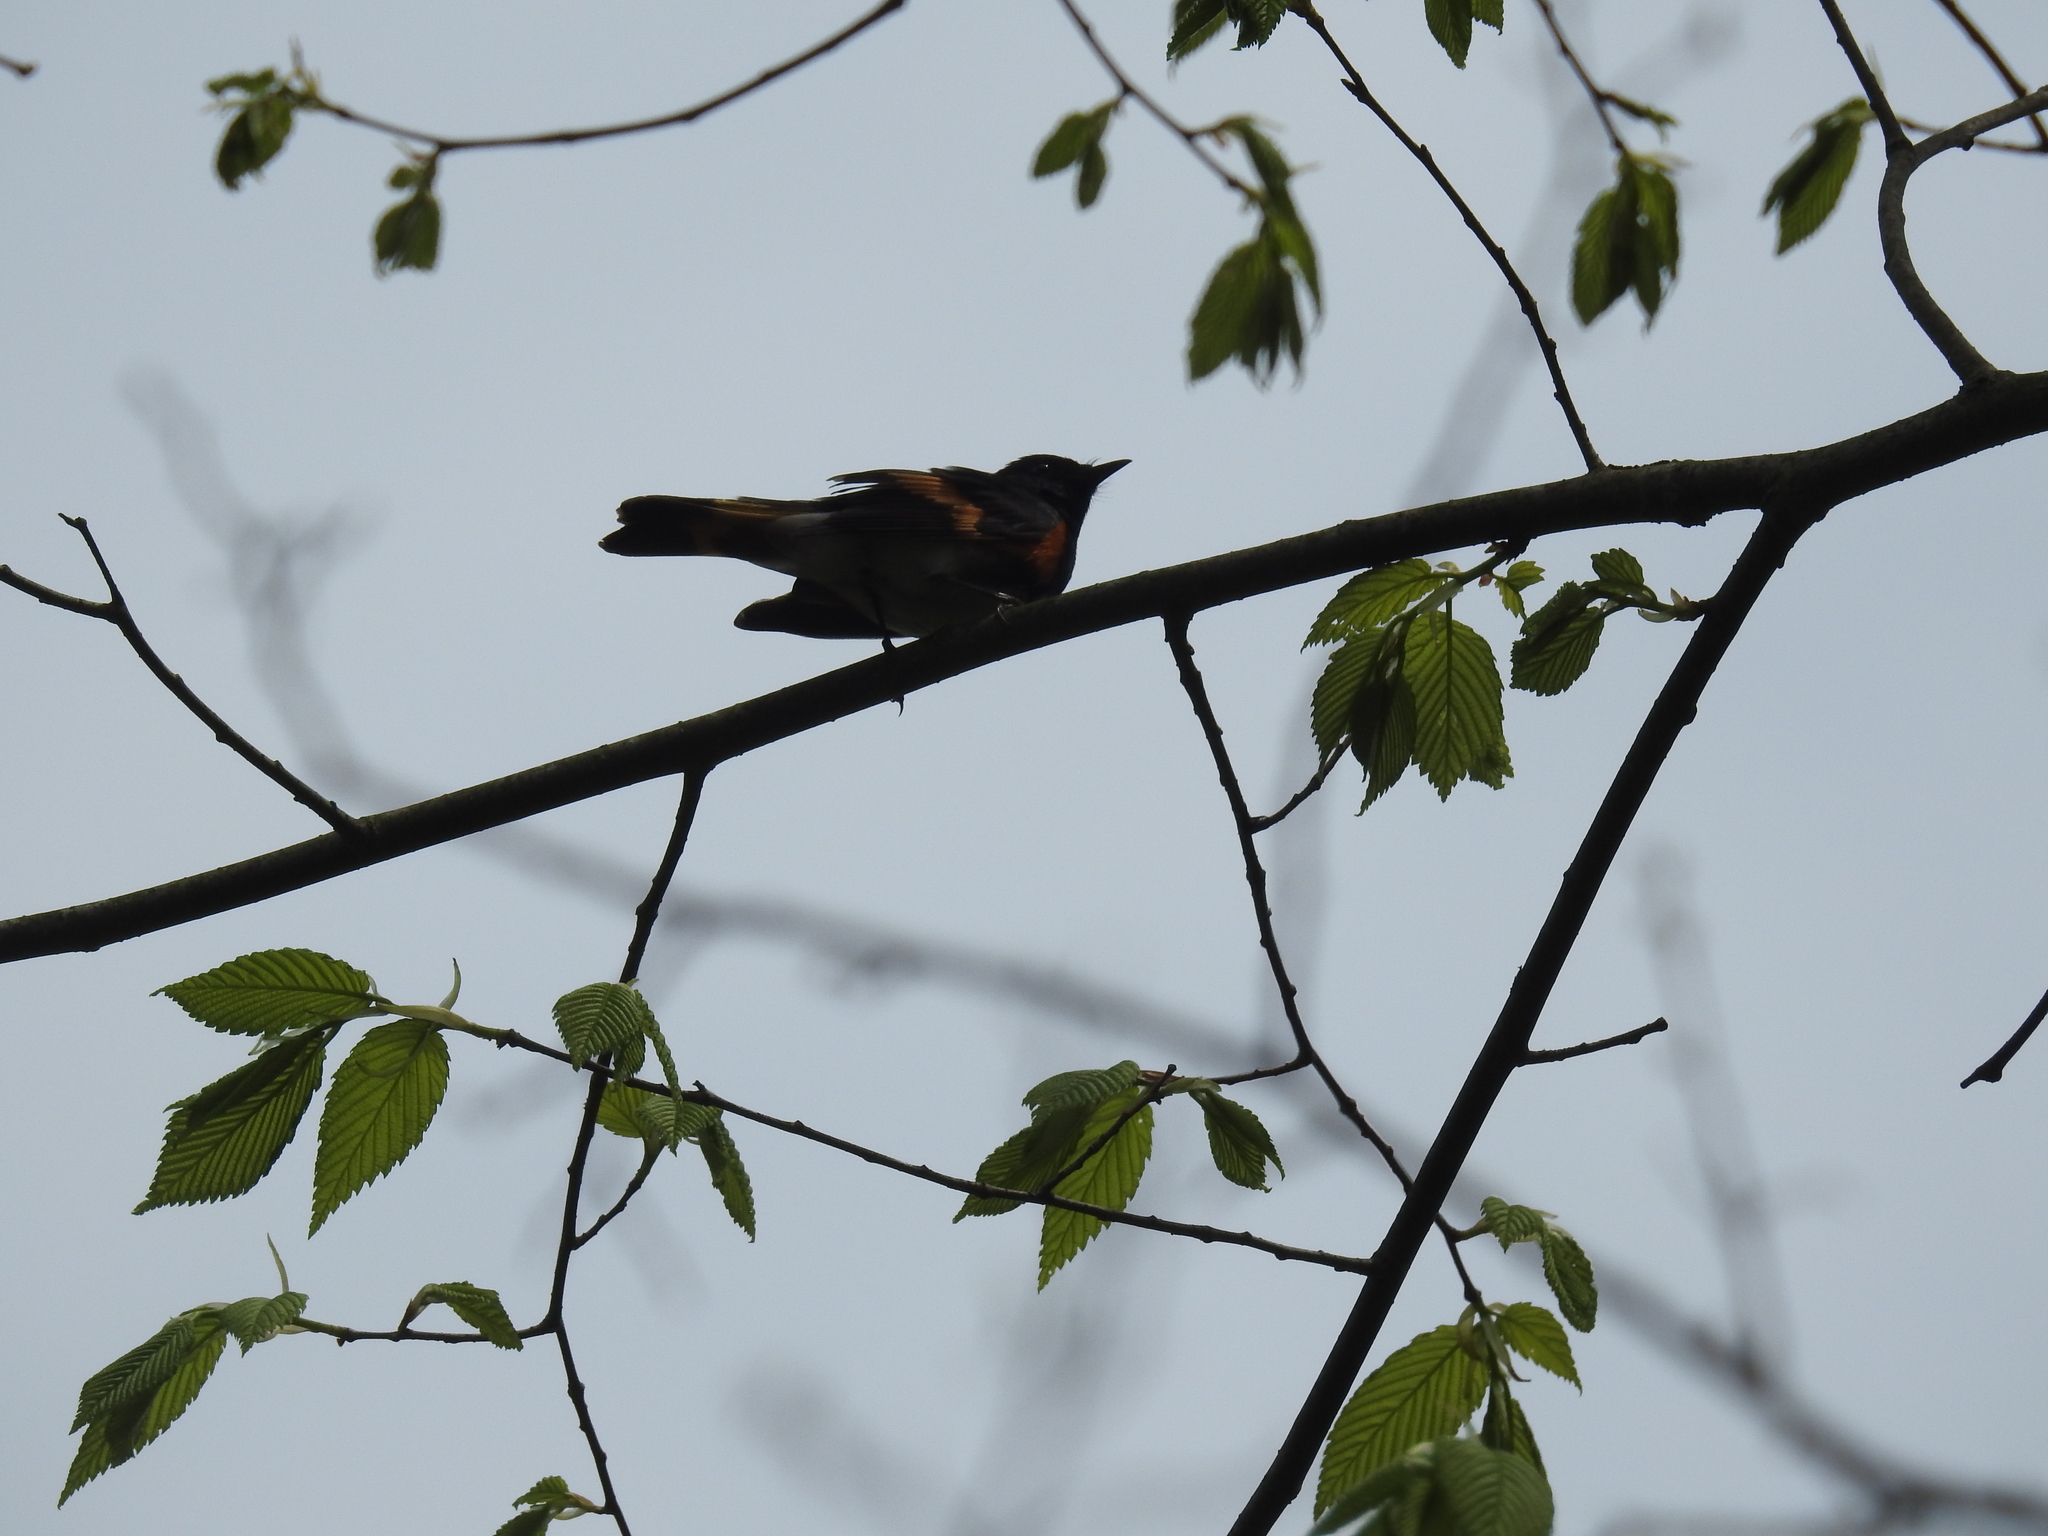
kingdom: Animalia
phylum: Chordata
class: Aves
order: Passeriformes
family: Parulidae
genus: Setophaga
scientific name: Setophaga ruticilla
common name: American redstart
